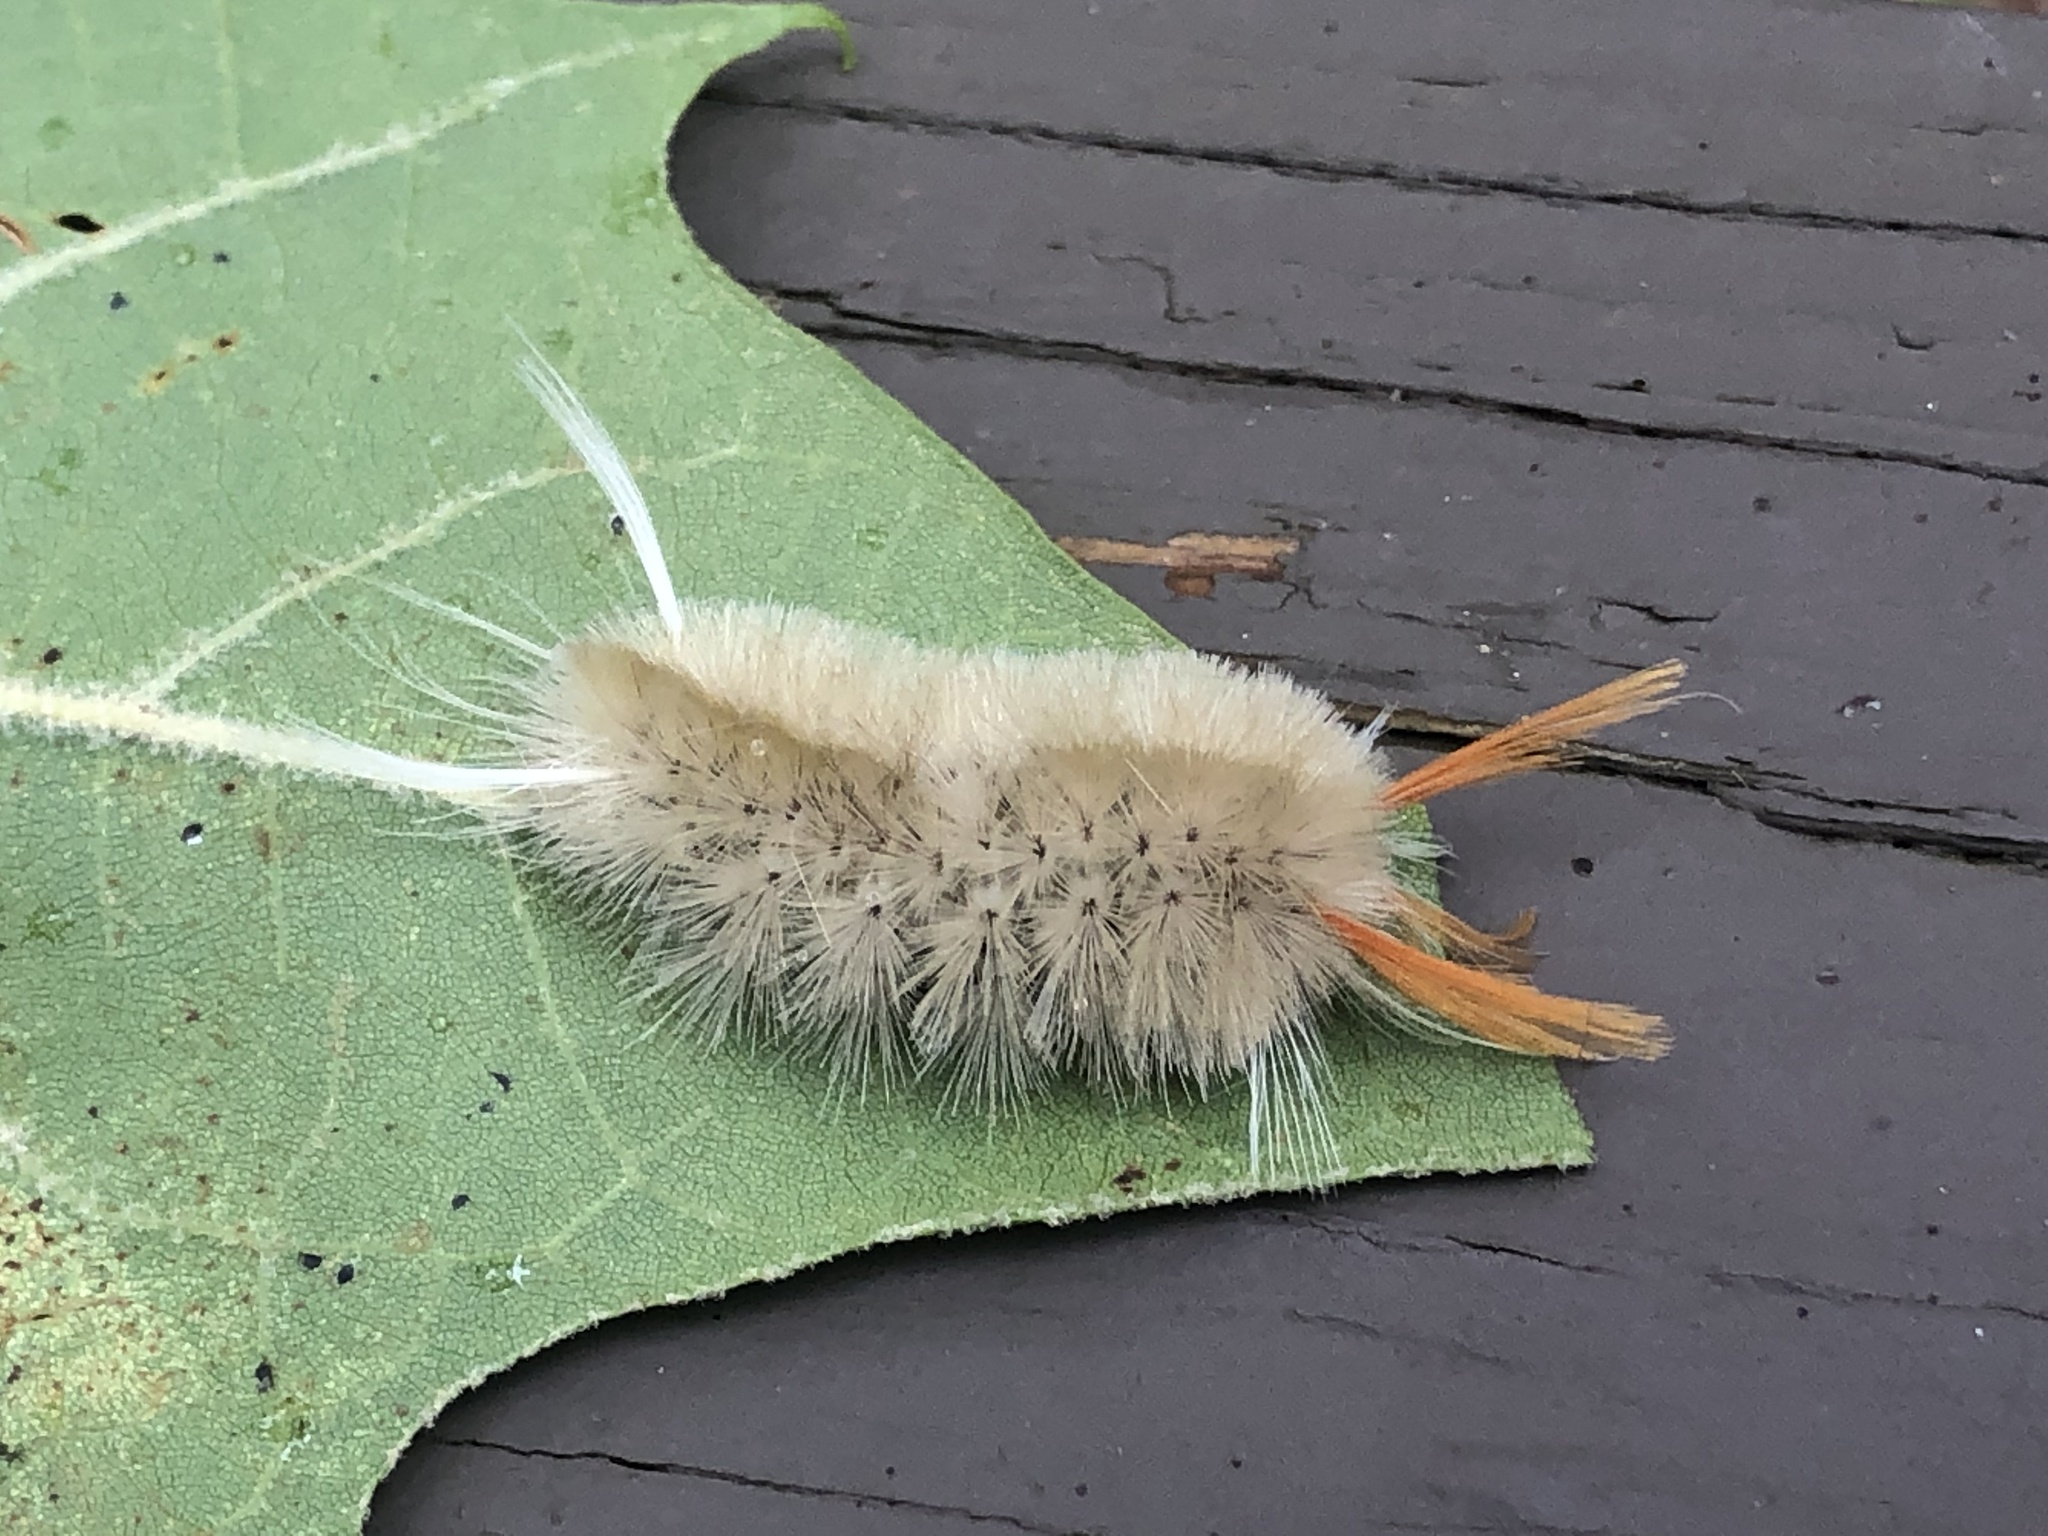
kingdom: Animalia
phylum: Arthropoda
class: Insecta
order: Lepidoptera
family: Erebidae
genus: Halysidota
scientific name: Halysidota harrisii
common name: Sycamore tussock moth
